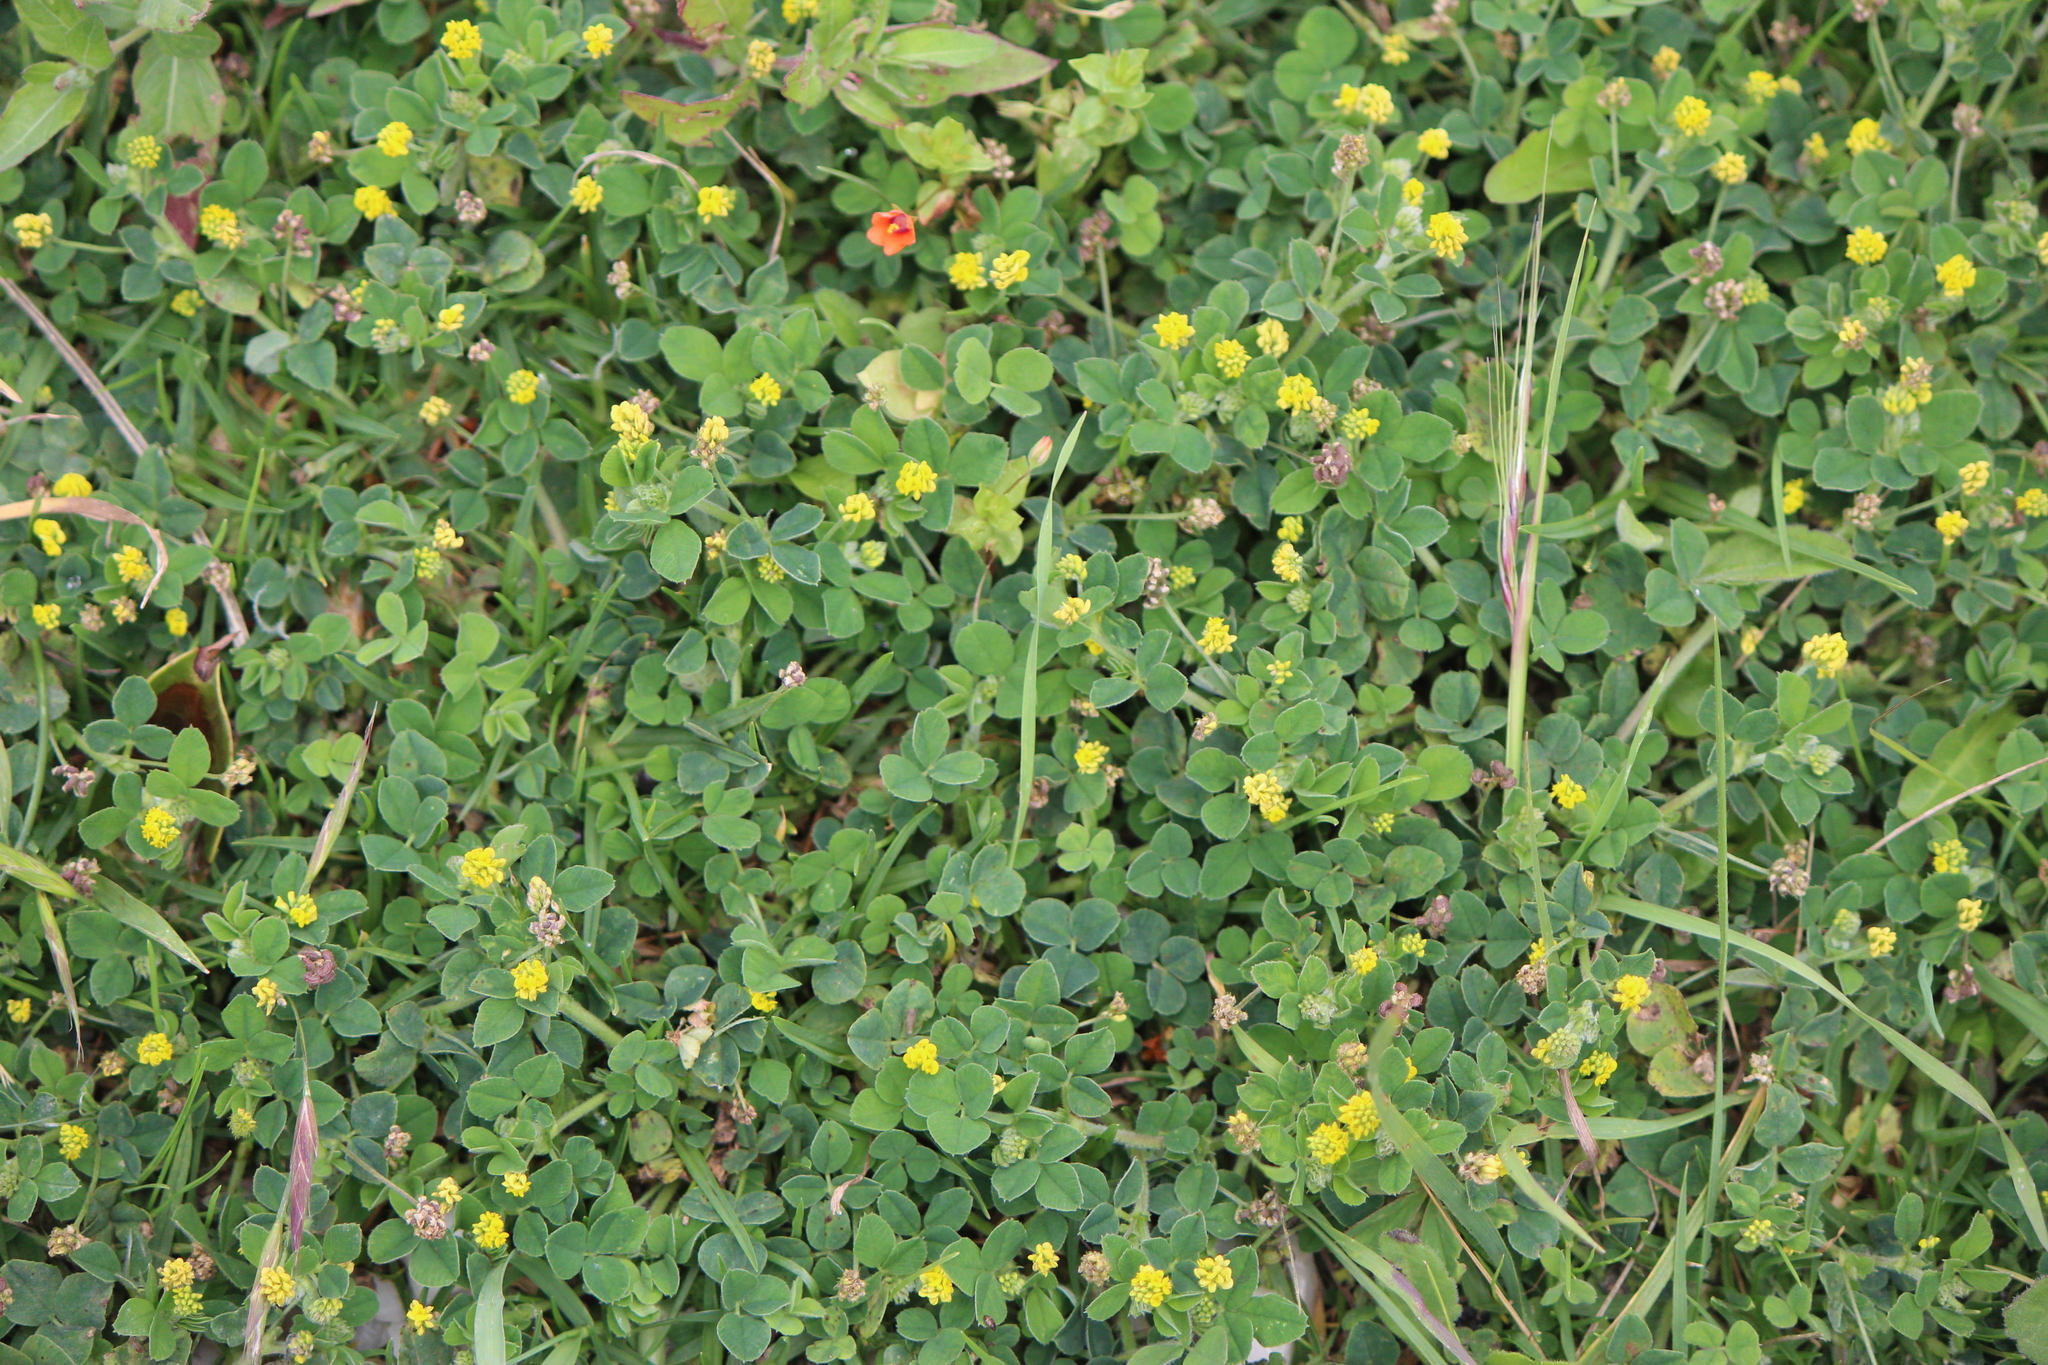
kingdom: Plantae
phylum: Tracheophyta
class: Magnoliopsida
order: Fabales
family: Fabaceae
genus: Medicago
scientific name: Medicago polymorpha
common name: Burclover
